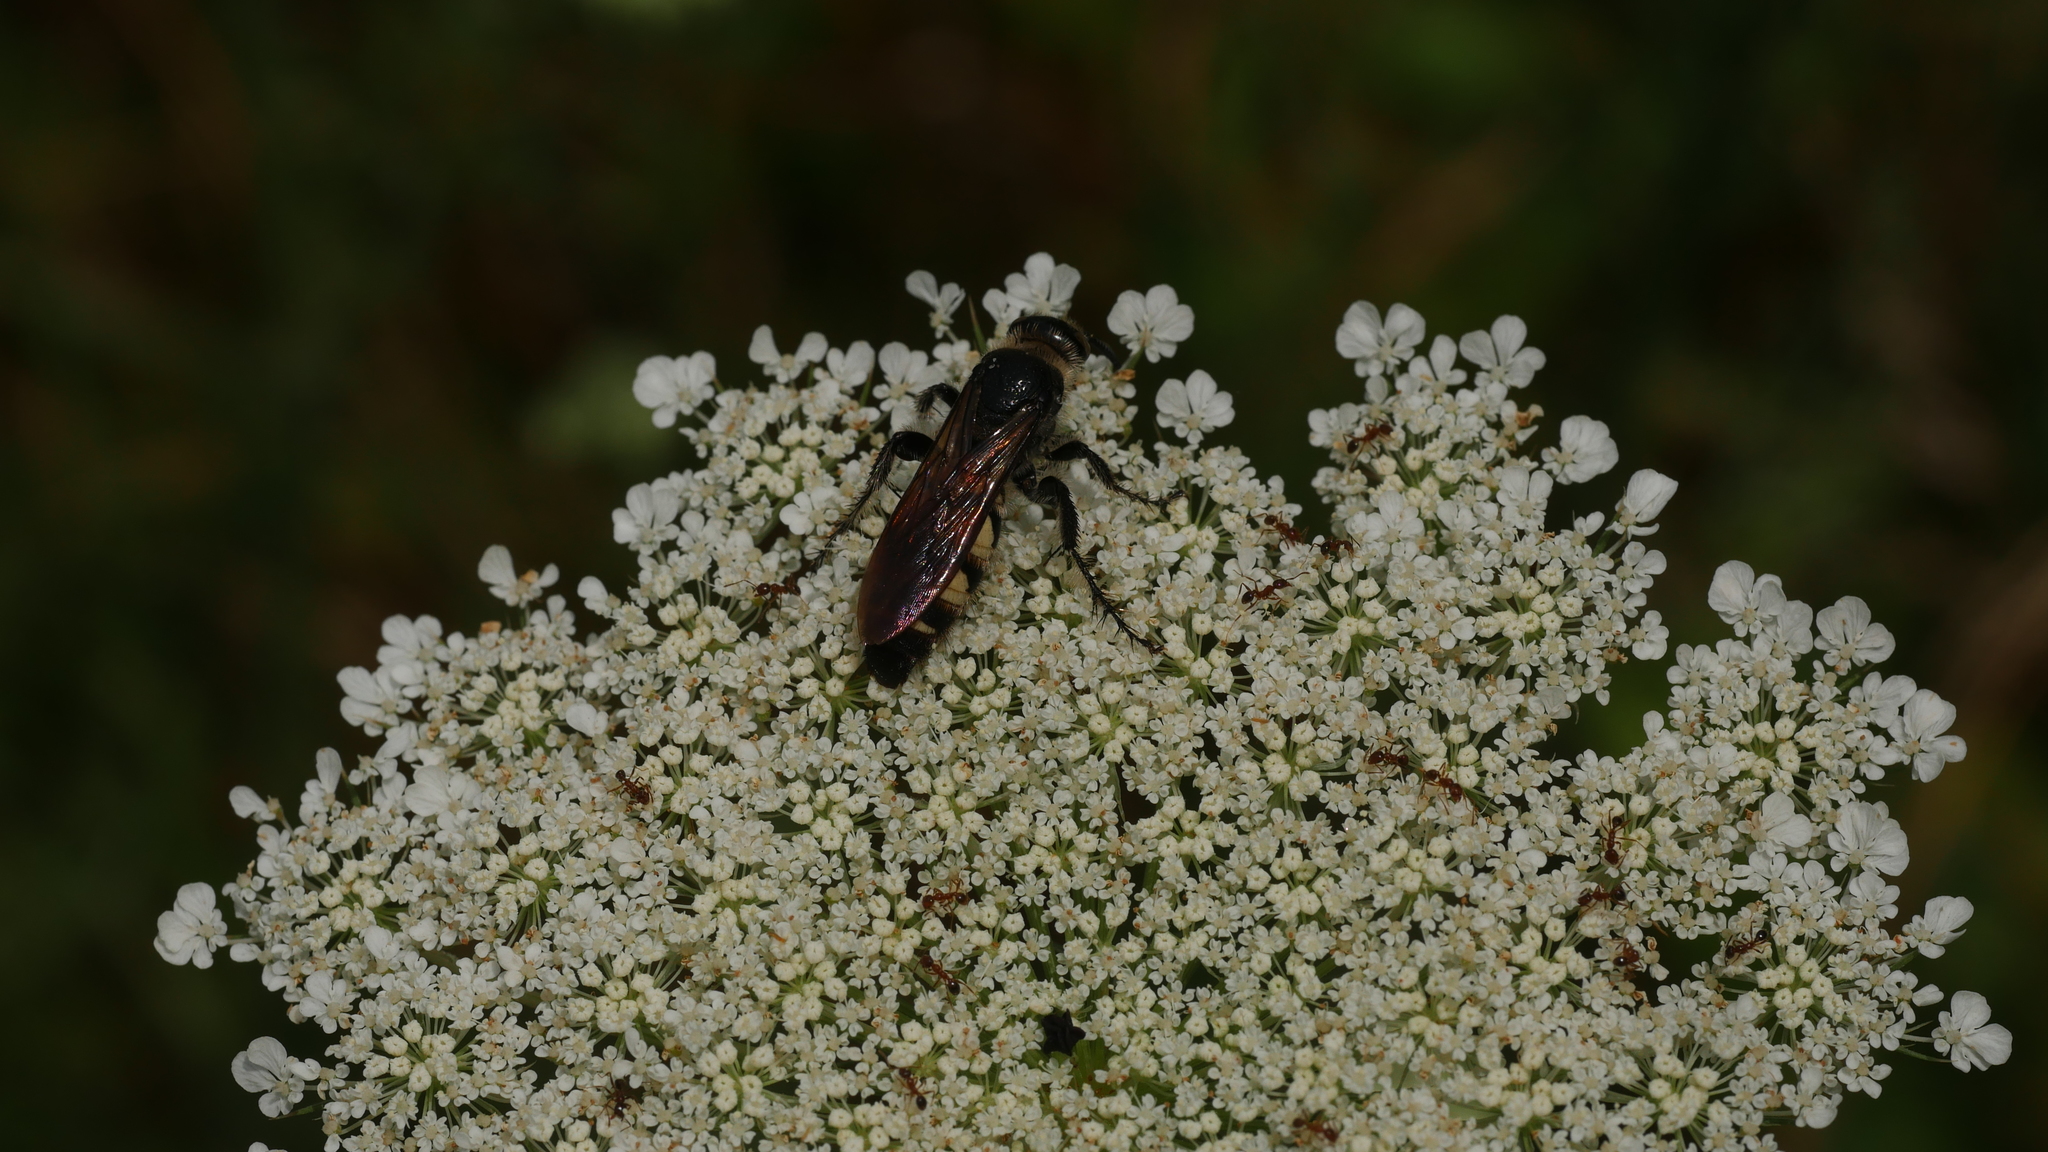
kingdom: Animalia
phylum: Arthropoda
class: Insecta
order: Hymenoptera
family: Scoliidae
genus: Dielis
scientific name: Dielis
